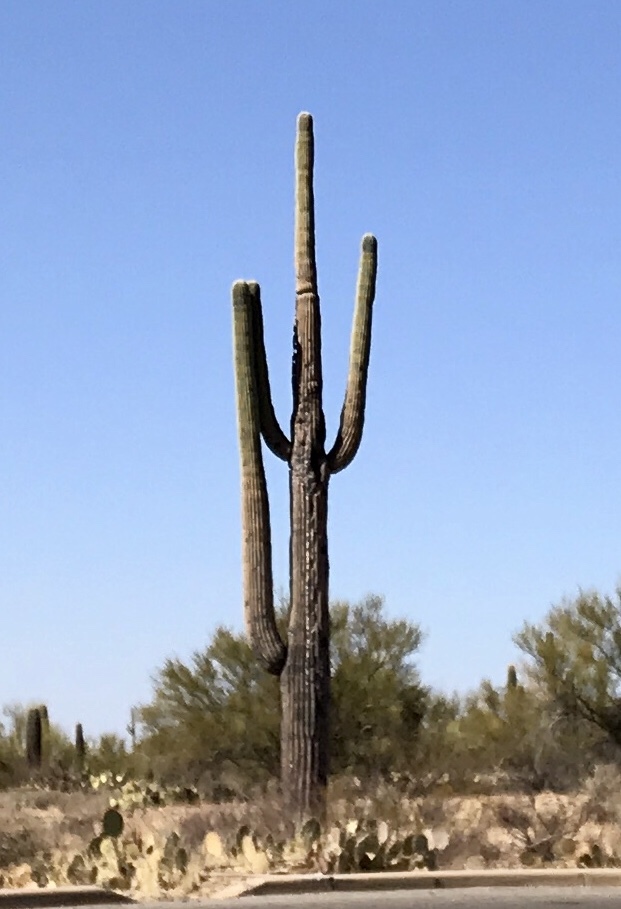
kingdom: Plantae
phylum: Tracheophyta
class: Magnoliopsida
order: Caryophyllales
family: Cactaceae
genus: Carnegiea
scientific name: Carnegiea gigantea
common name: Saguaro
